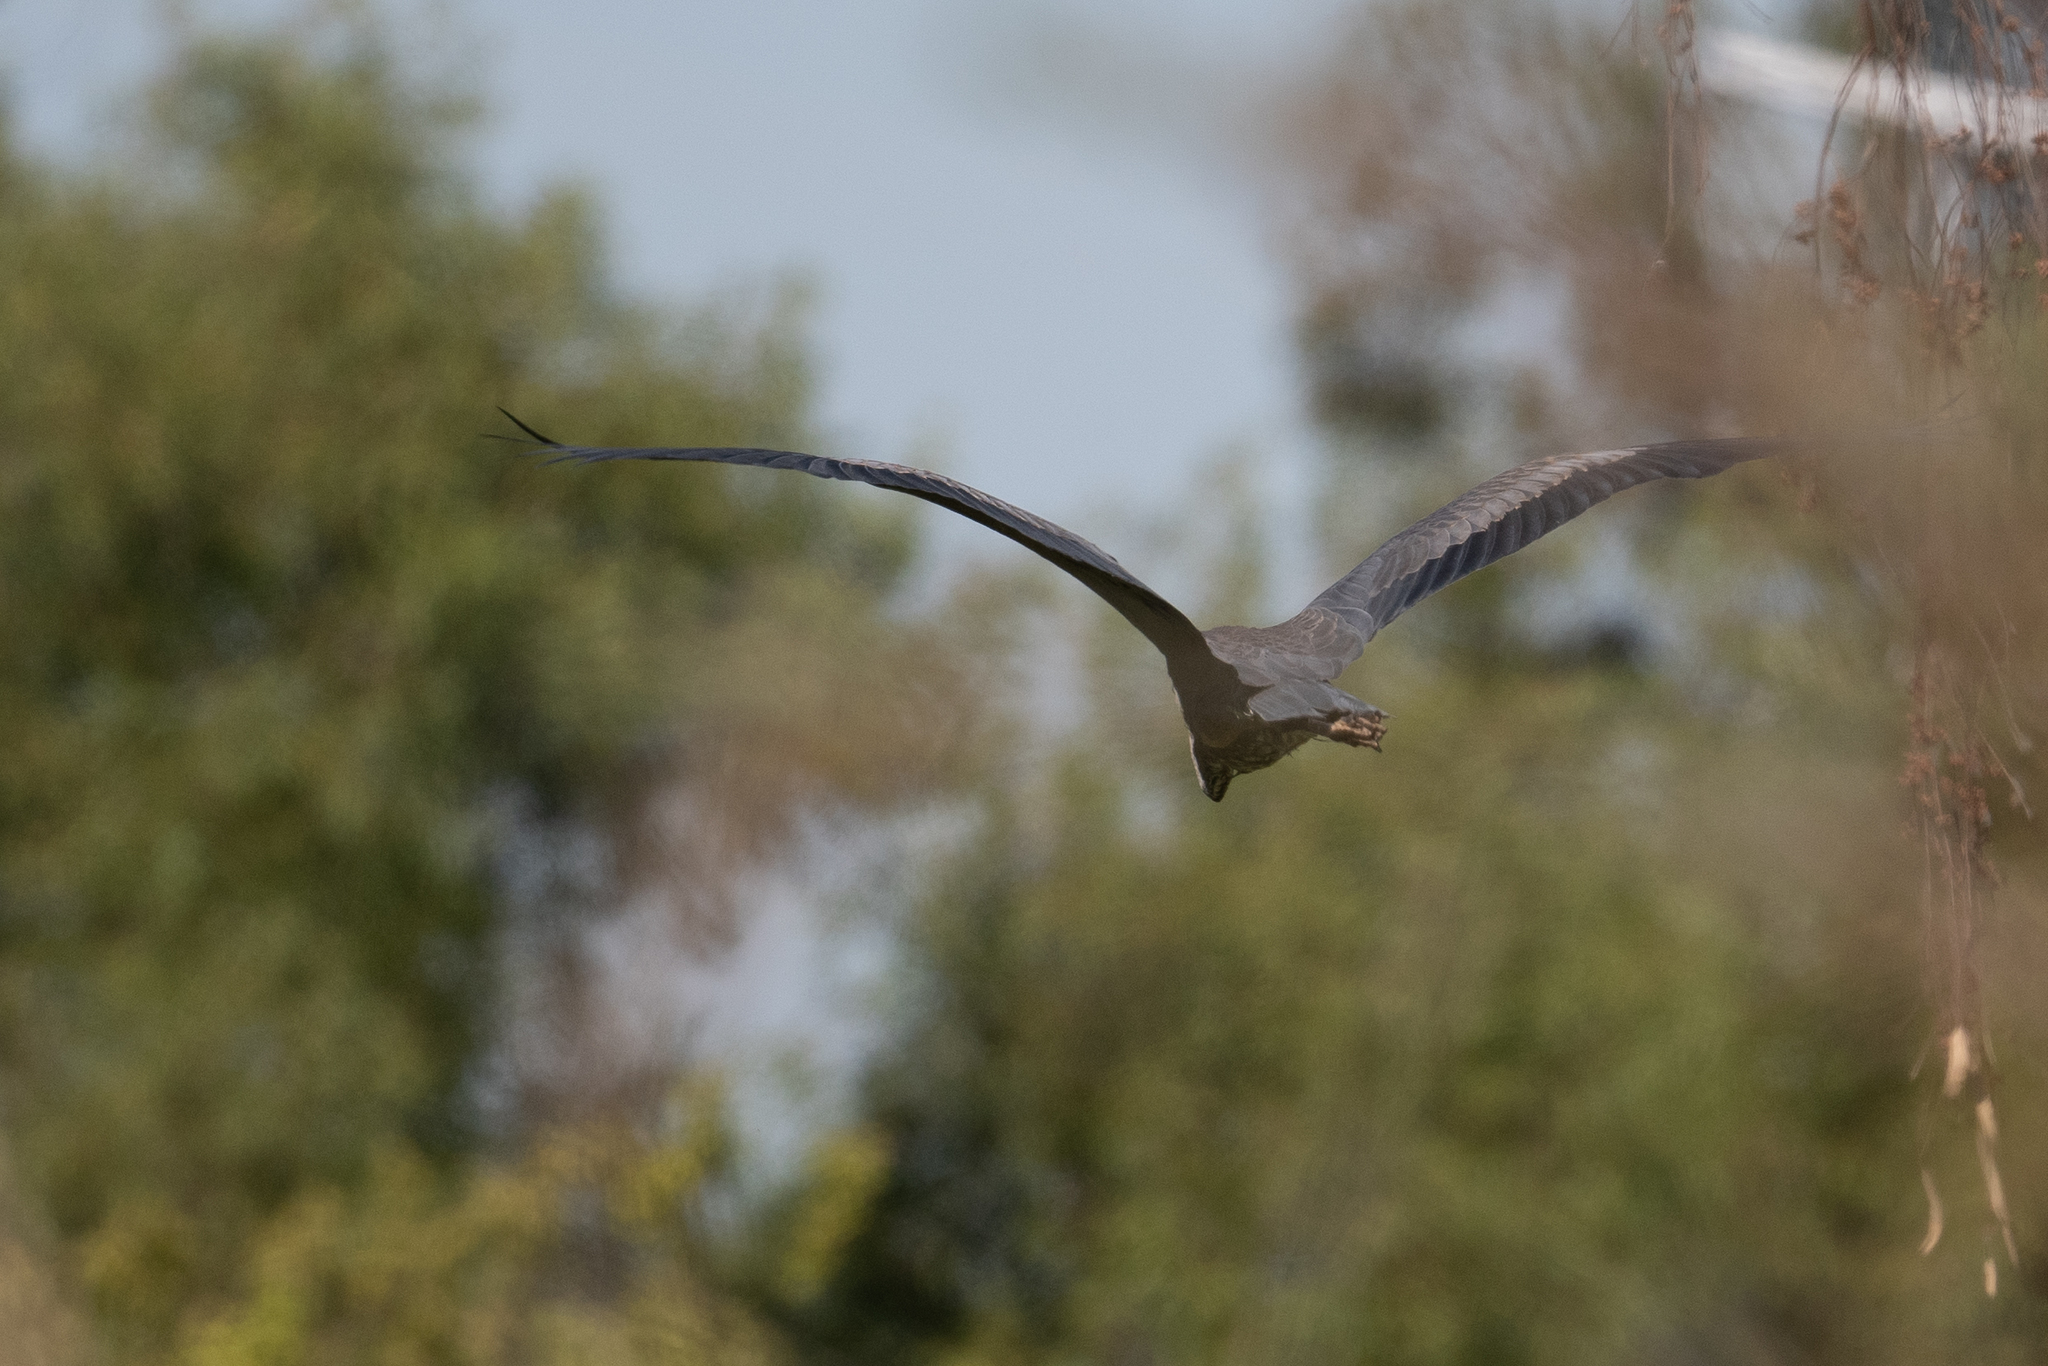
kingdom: Animalia
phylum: Chordata
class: Aves
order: Pelecaniformes
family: Ardeidae
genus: Ardea
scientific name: Ardea herodias
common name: Great blue heron
